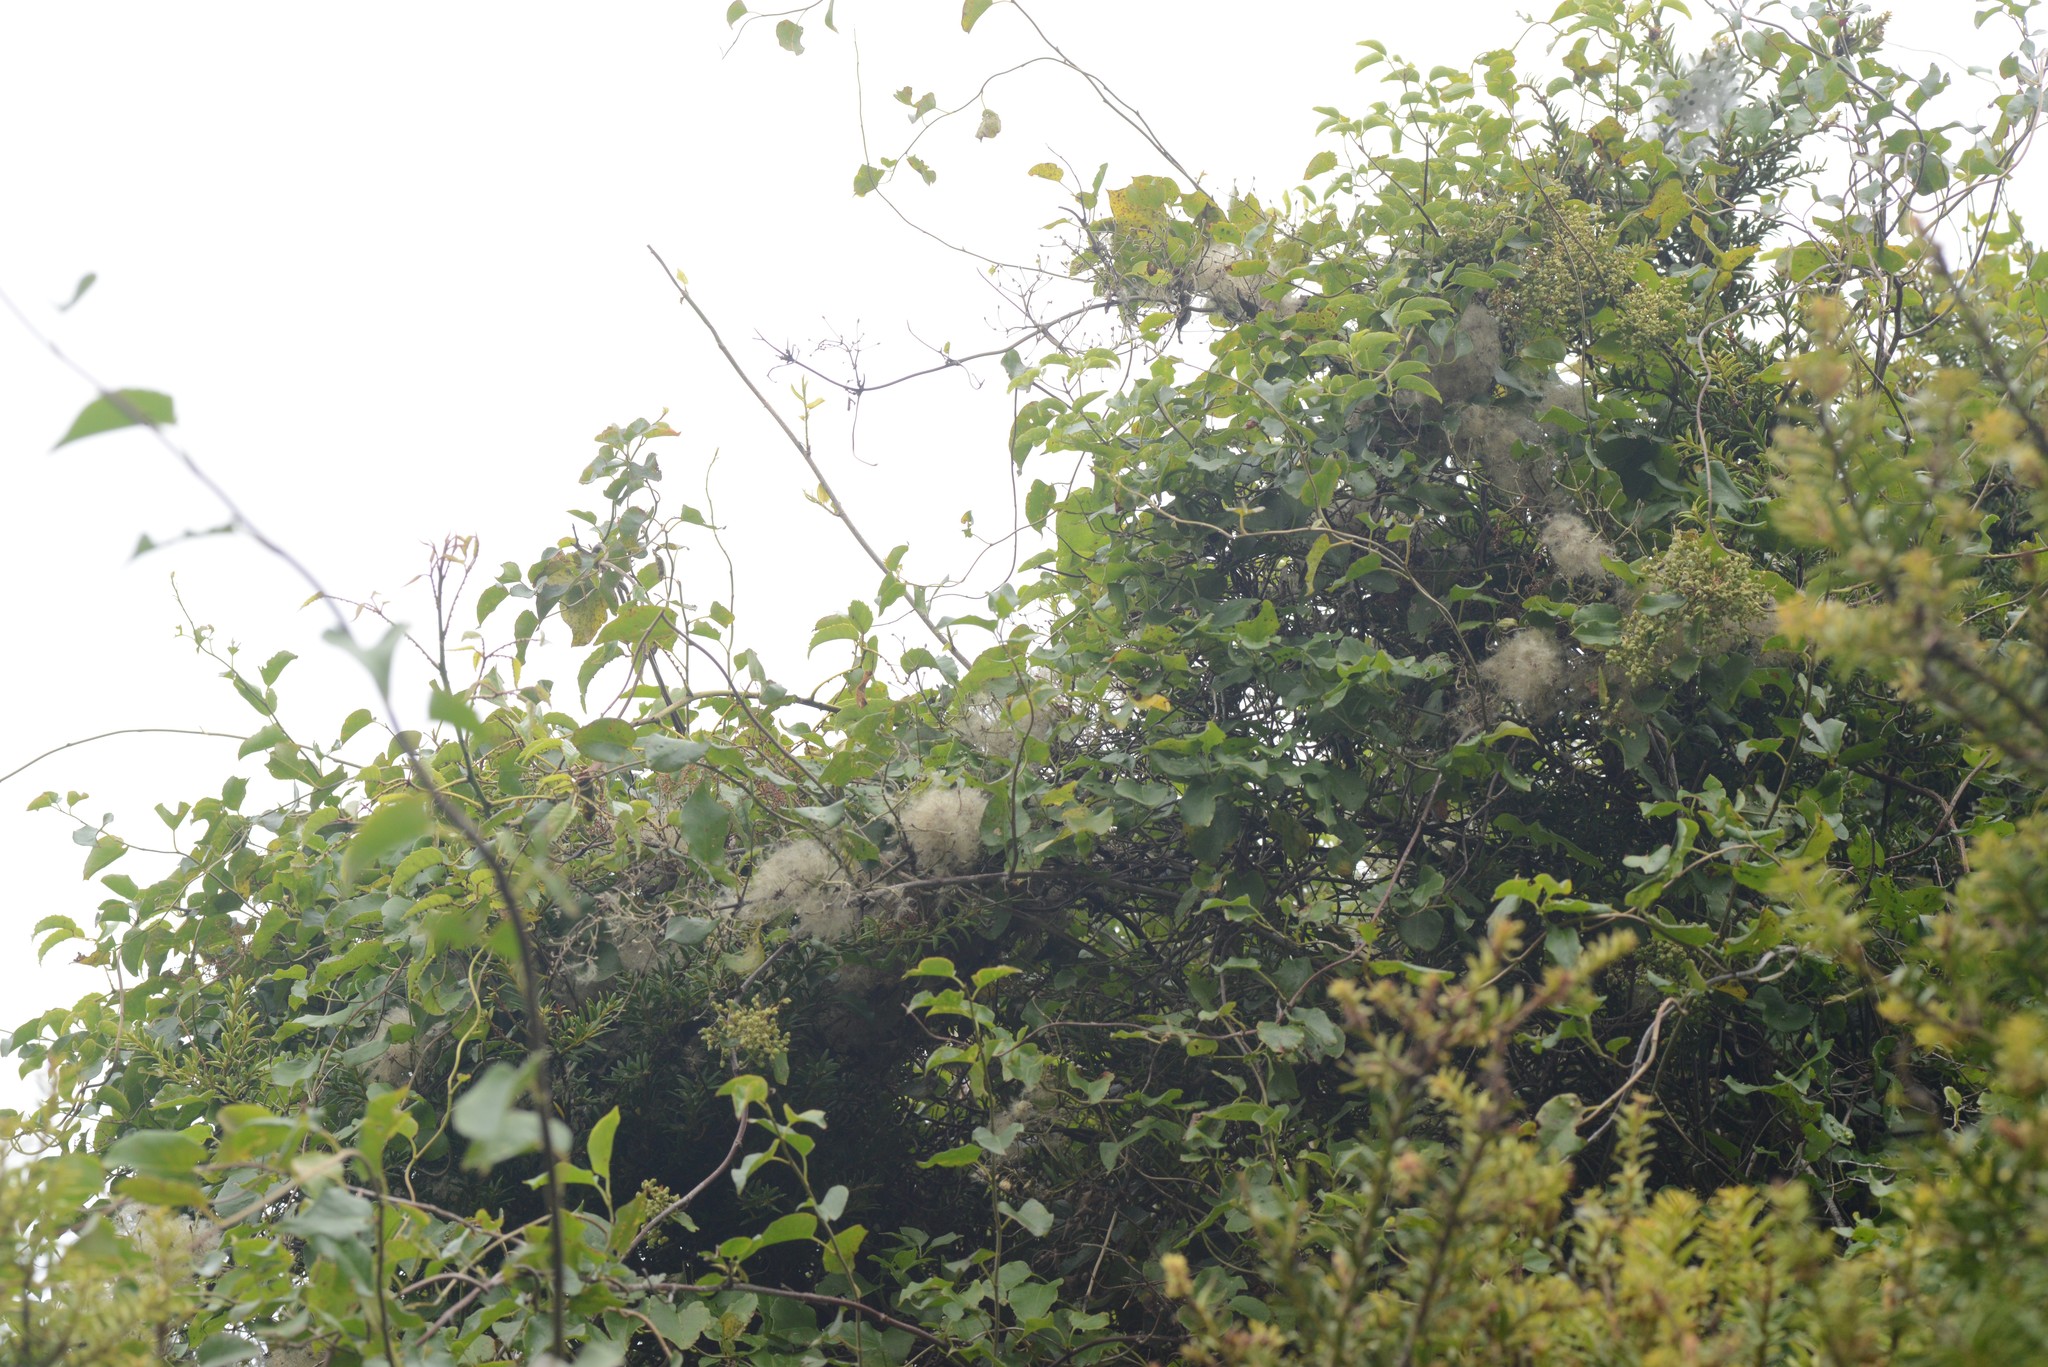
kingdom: Plantae
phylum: Tracheophyta
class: Magnoliopsida
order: Ranunculales
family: Ranunculaceae
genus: Clematis
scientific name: Clematis paniculata
